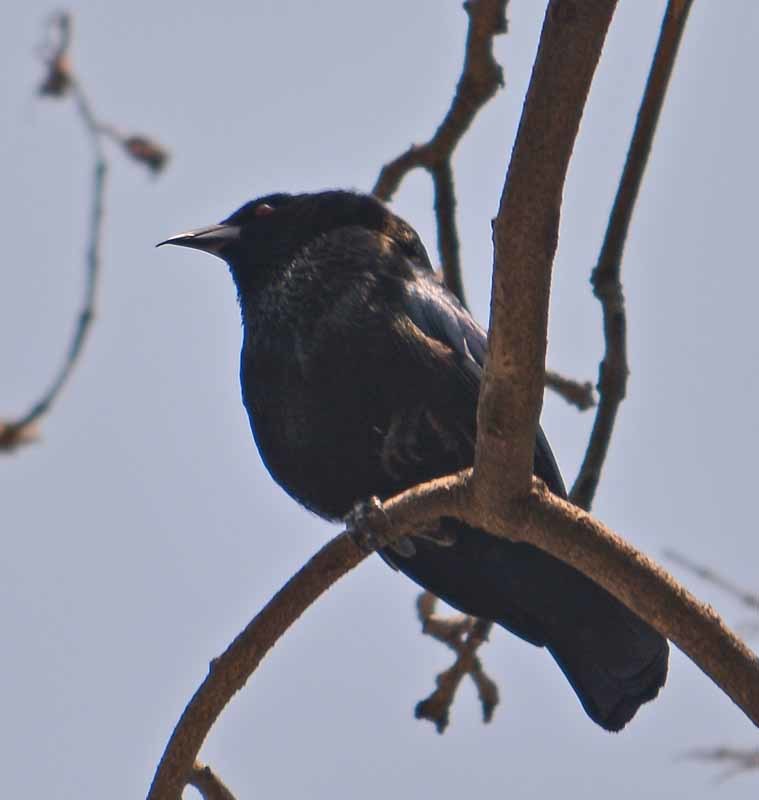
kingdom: Animalia
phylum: Chordata
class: Aves
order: Passeriformes
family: Icteridae
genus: Molothrus
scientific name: Molothrus aeneus
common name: Bronzed cowbird
